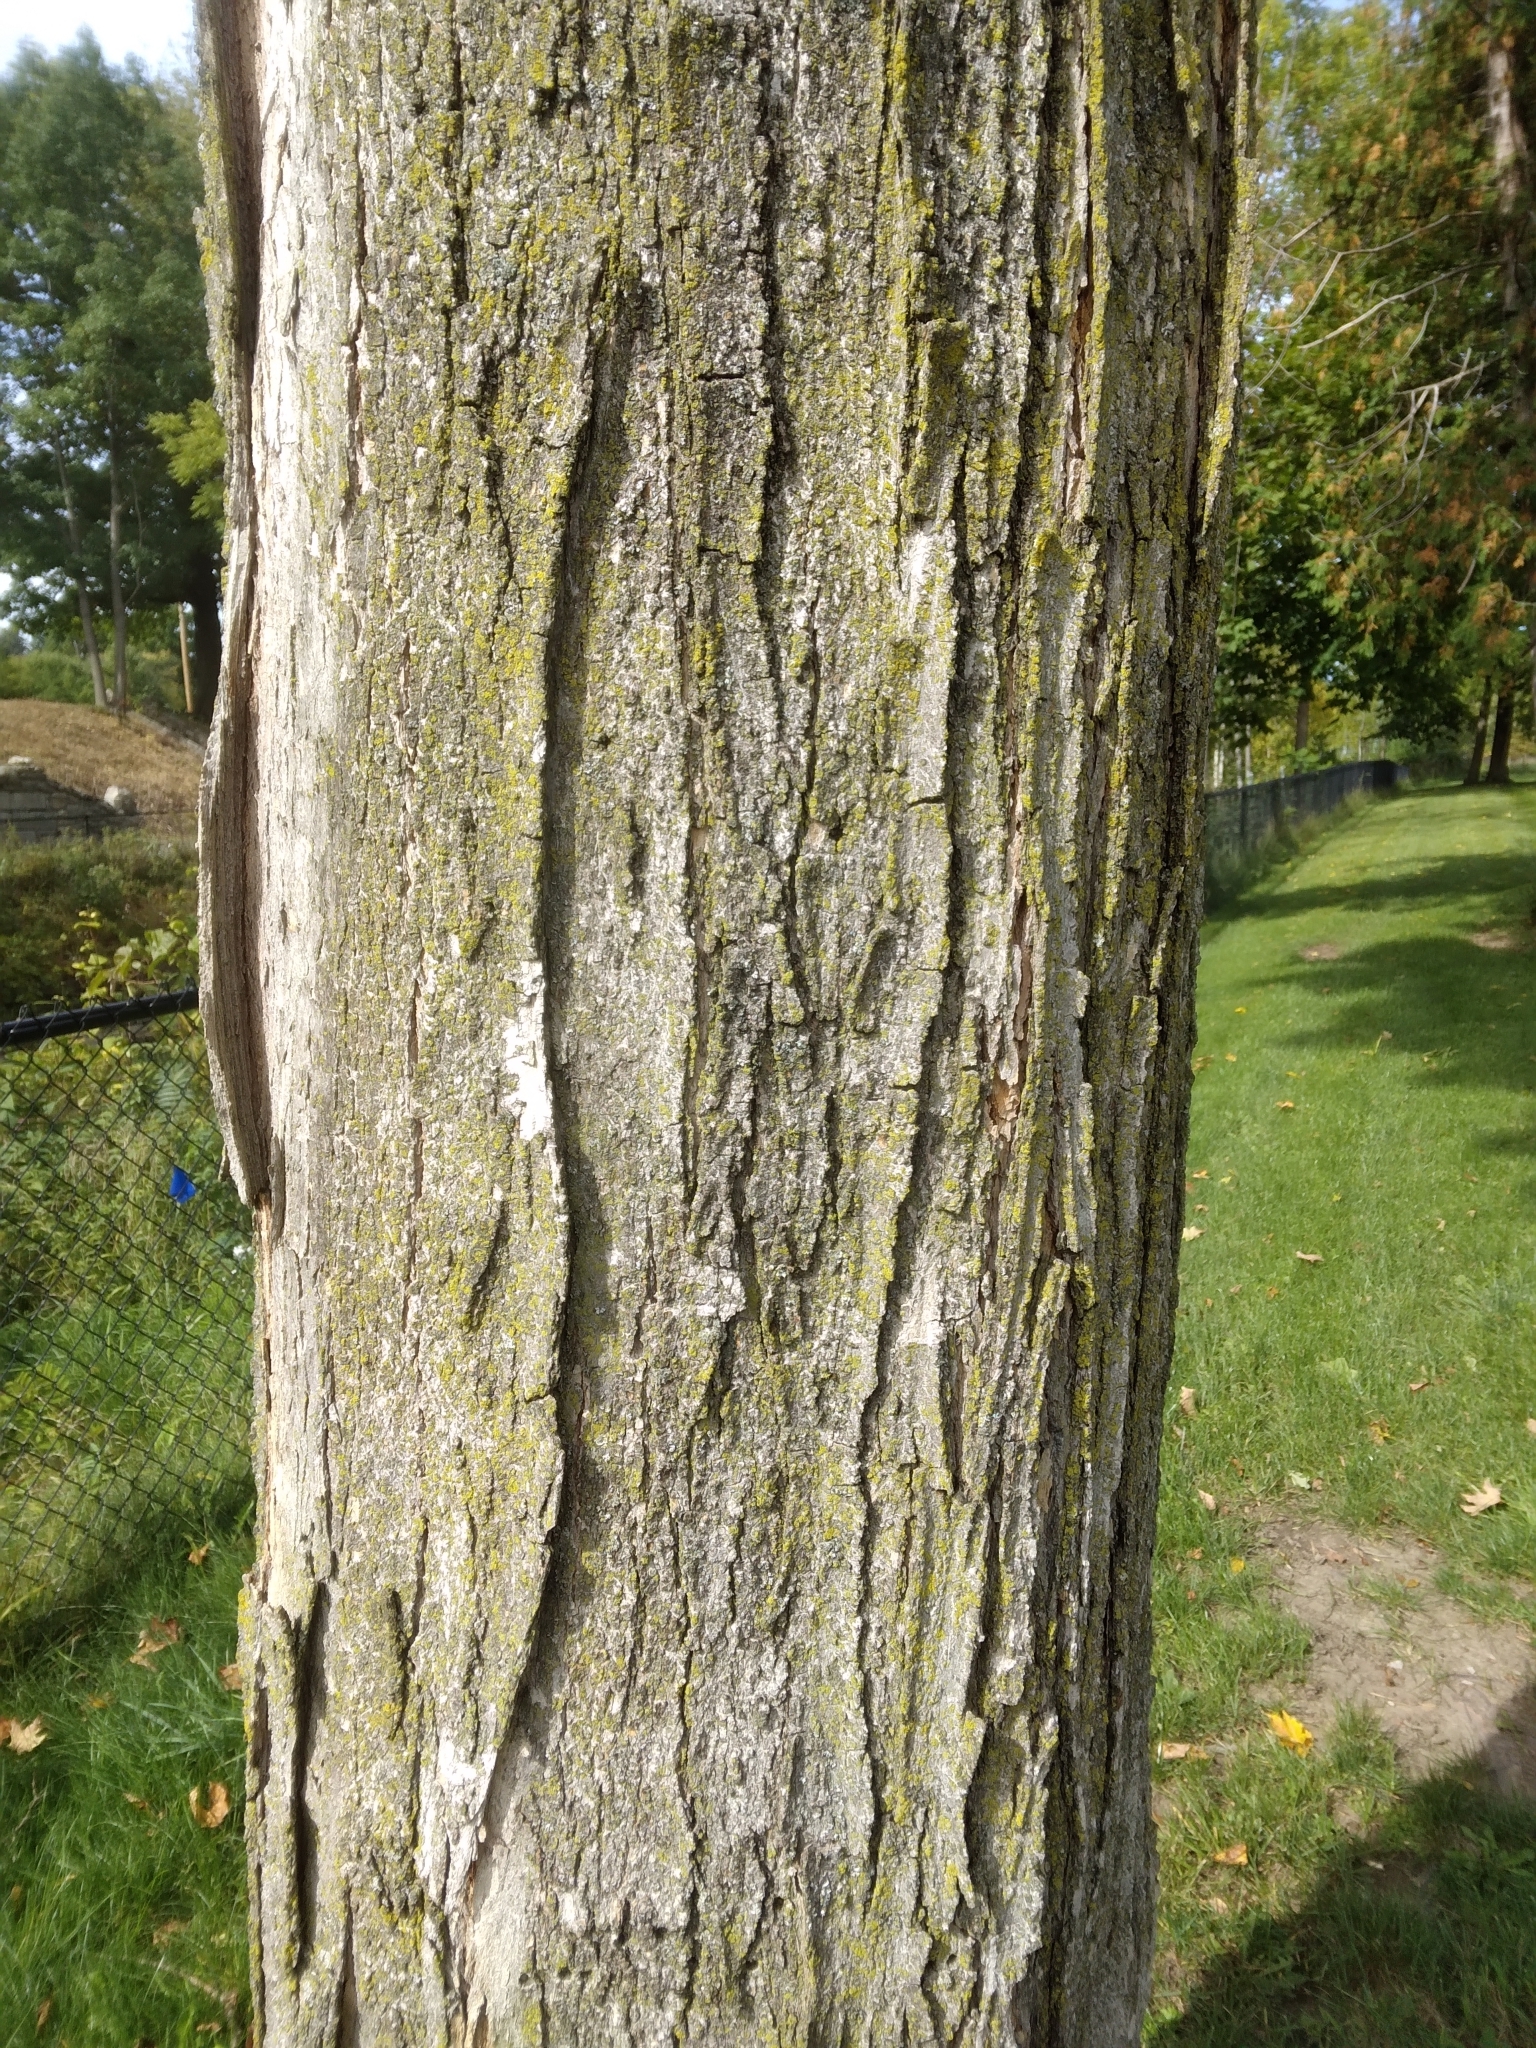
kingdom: Plantae
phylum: Tracheophyta
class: Magnoliopsida
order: Sapindales
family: Sapindaceae
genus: Acer
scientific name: Acer saccharum
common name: Sugar maple
